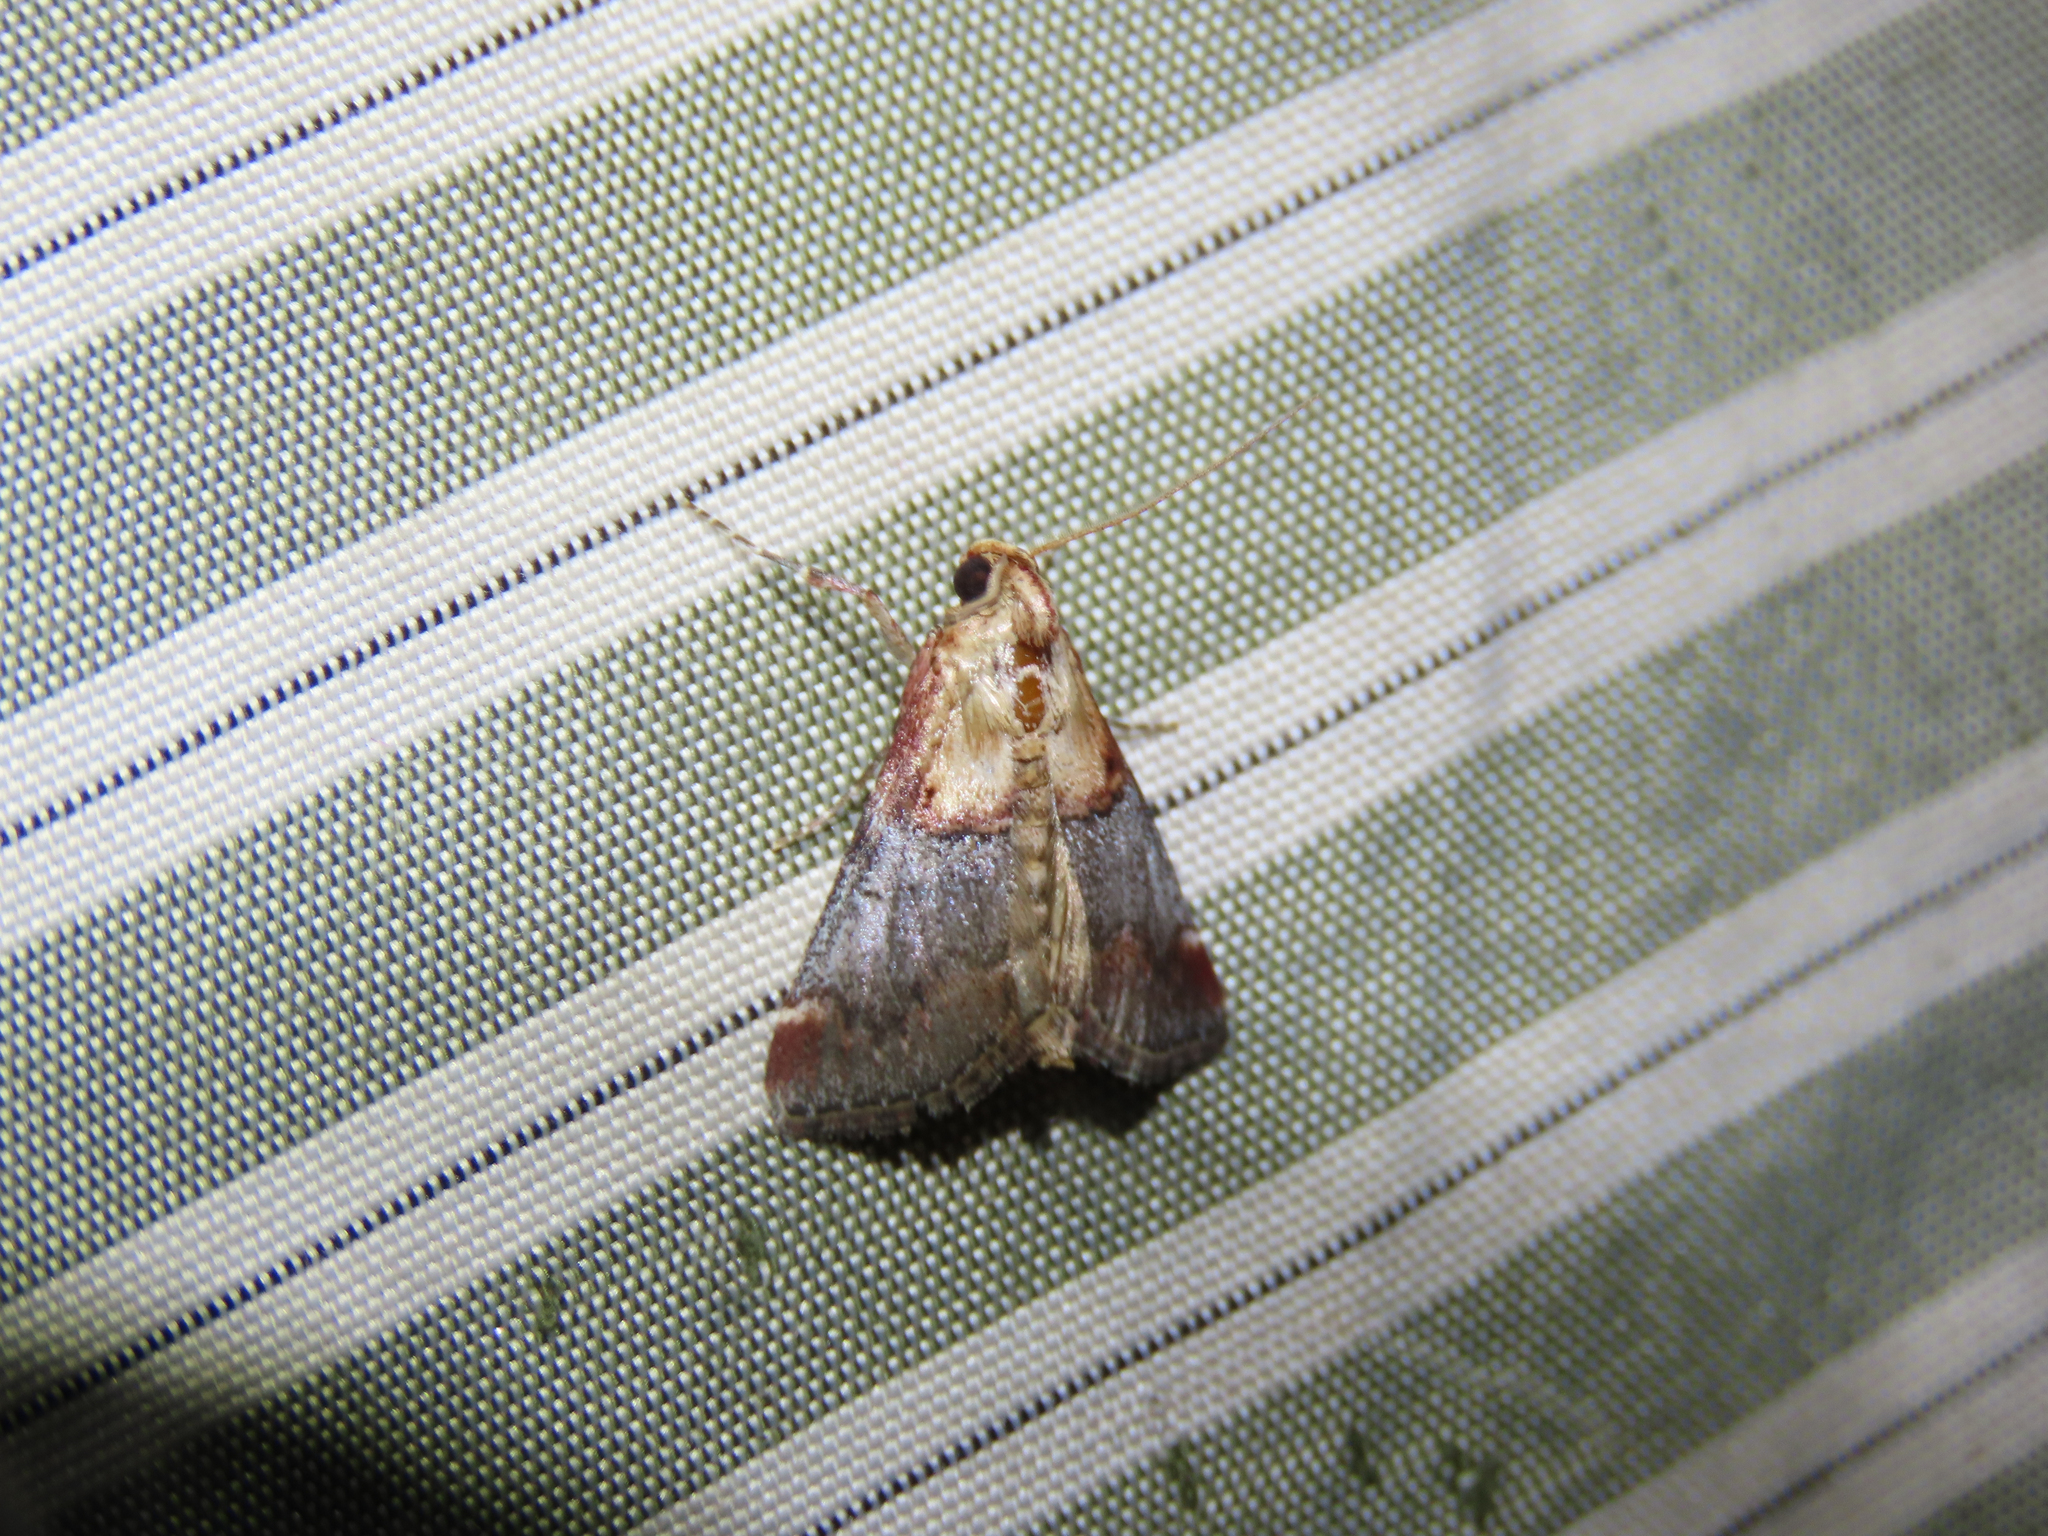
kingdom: Animalia
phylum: Arthropoda
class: Insecta
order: Lepidoptera
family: Pyralidae
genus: Cacozelia
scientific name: Cacozelia basiochrealis
